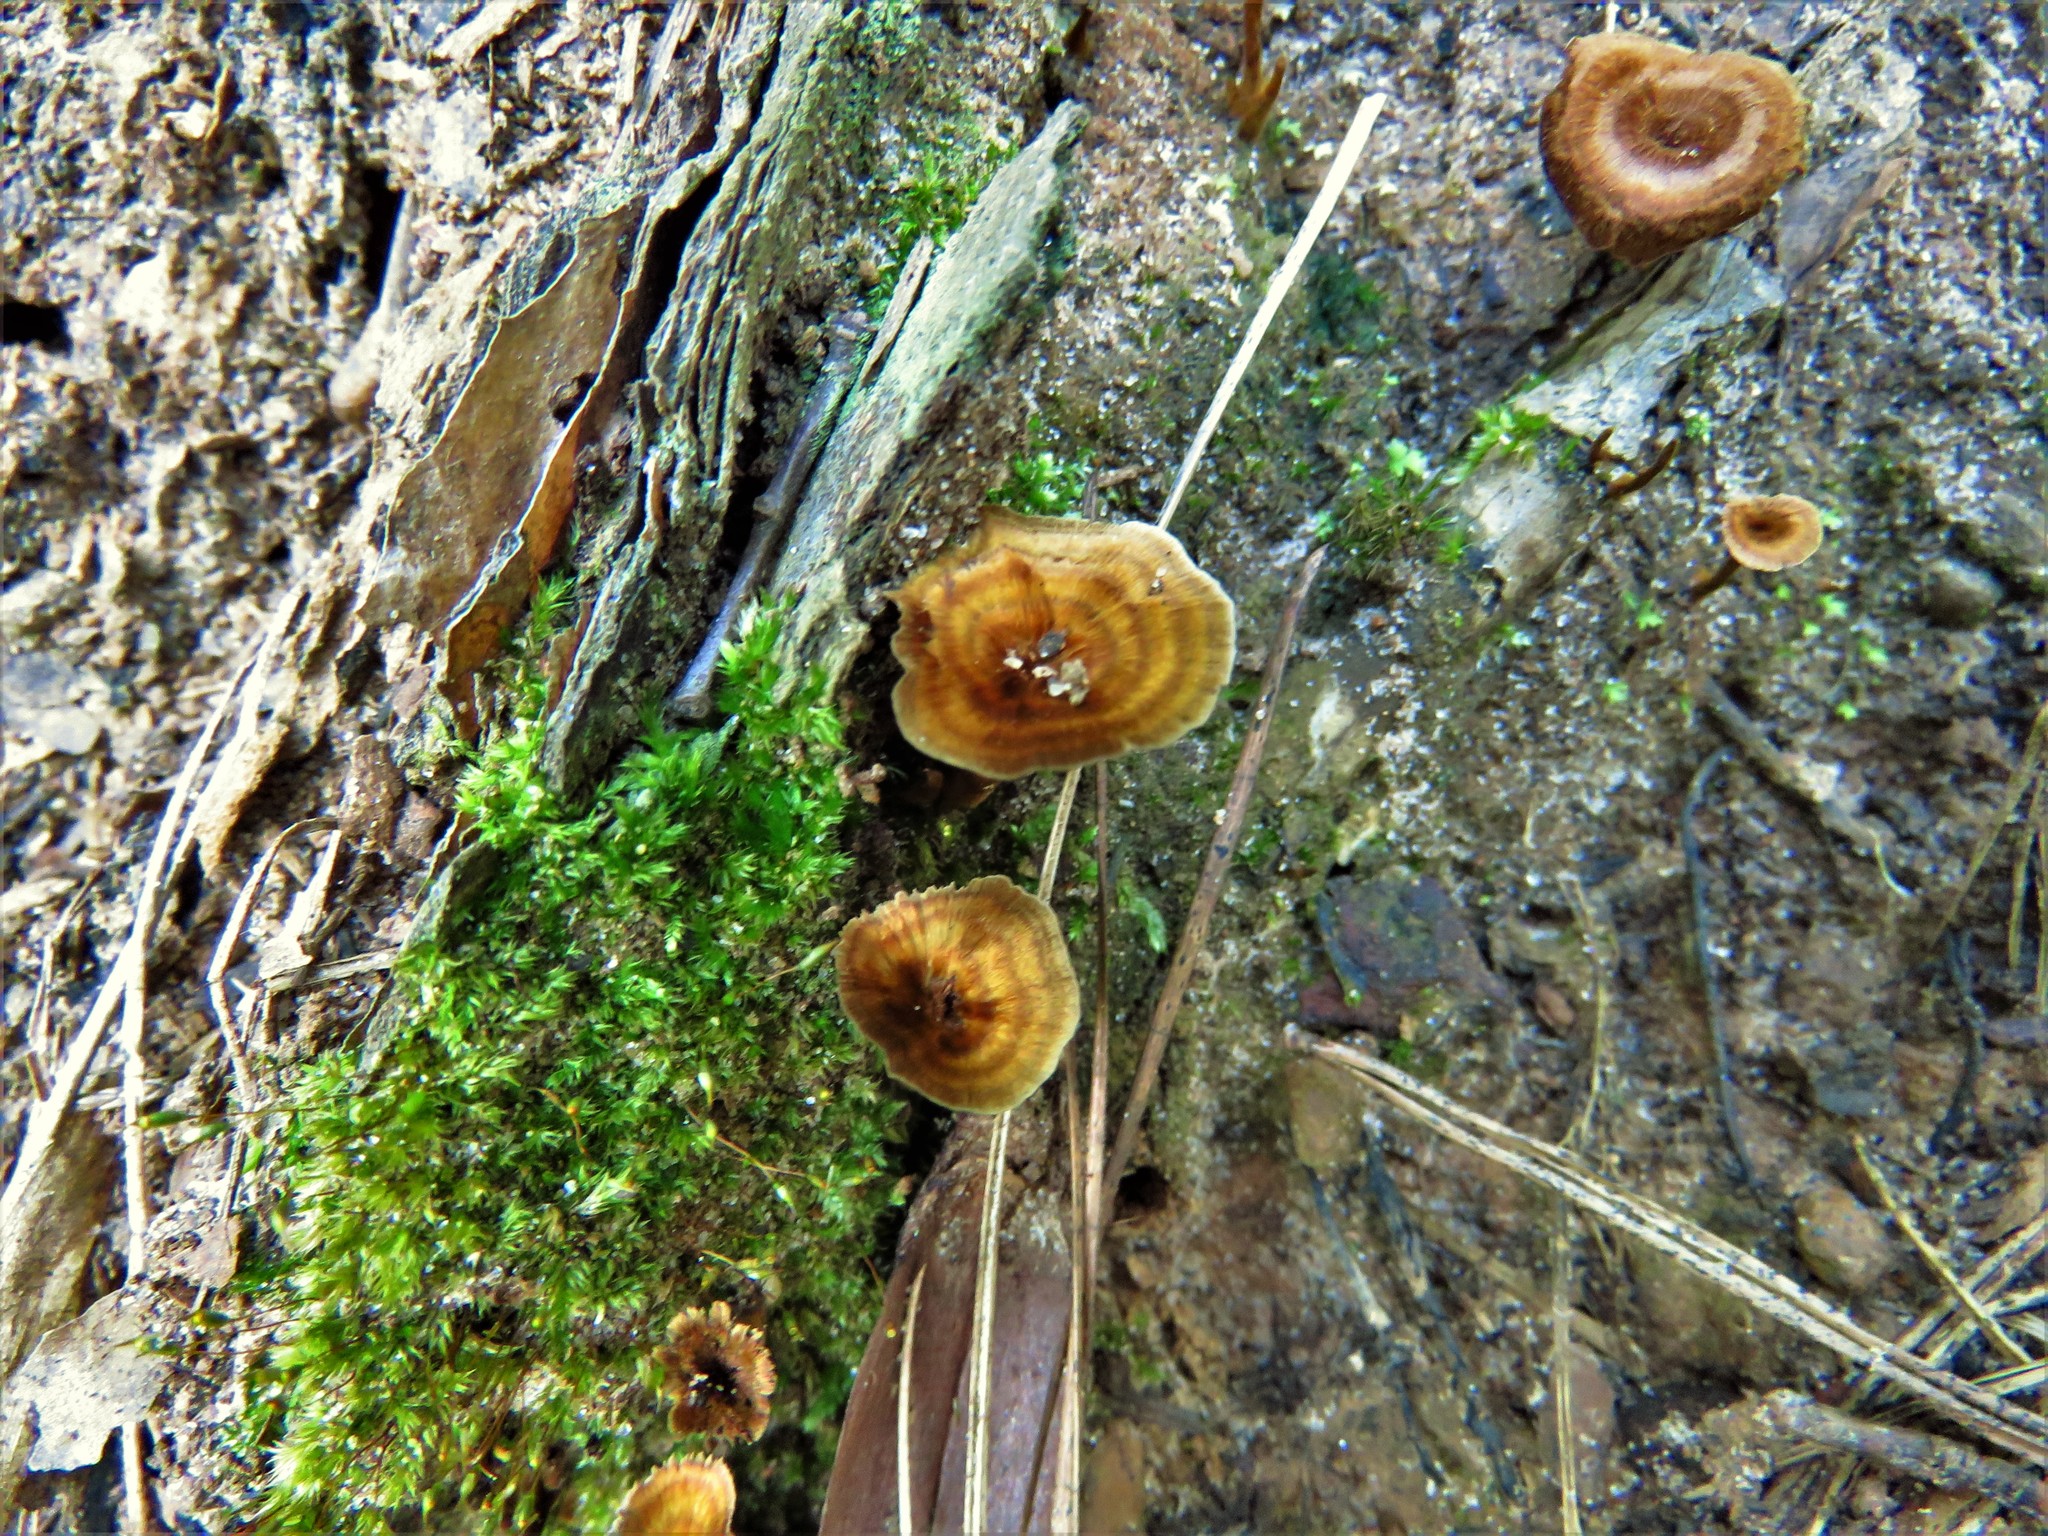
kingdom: Fungi
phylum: Basidiomycota
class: Agaricomycetes
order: Hymenochaetales
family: Hymenochaetaceae
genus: Coltricia
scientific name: Coltricia cinnamomea
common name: Shiny cinnamon polypore
